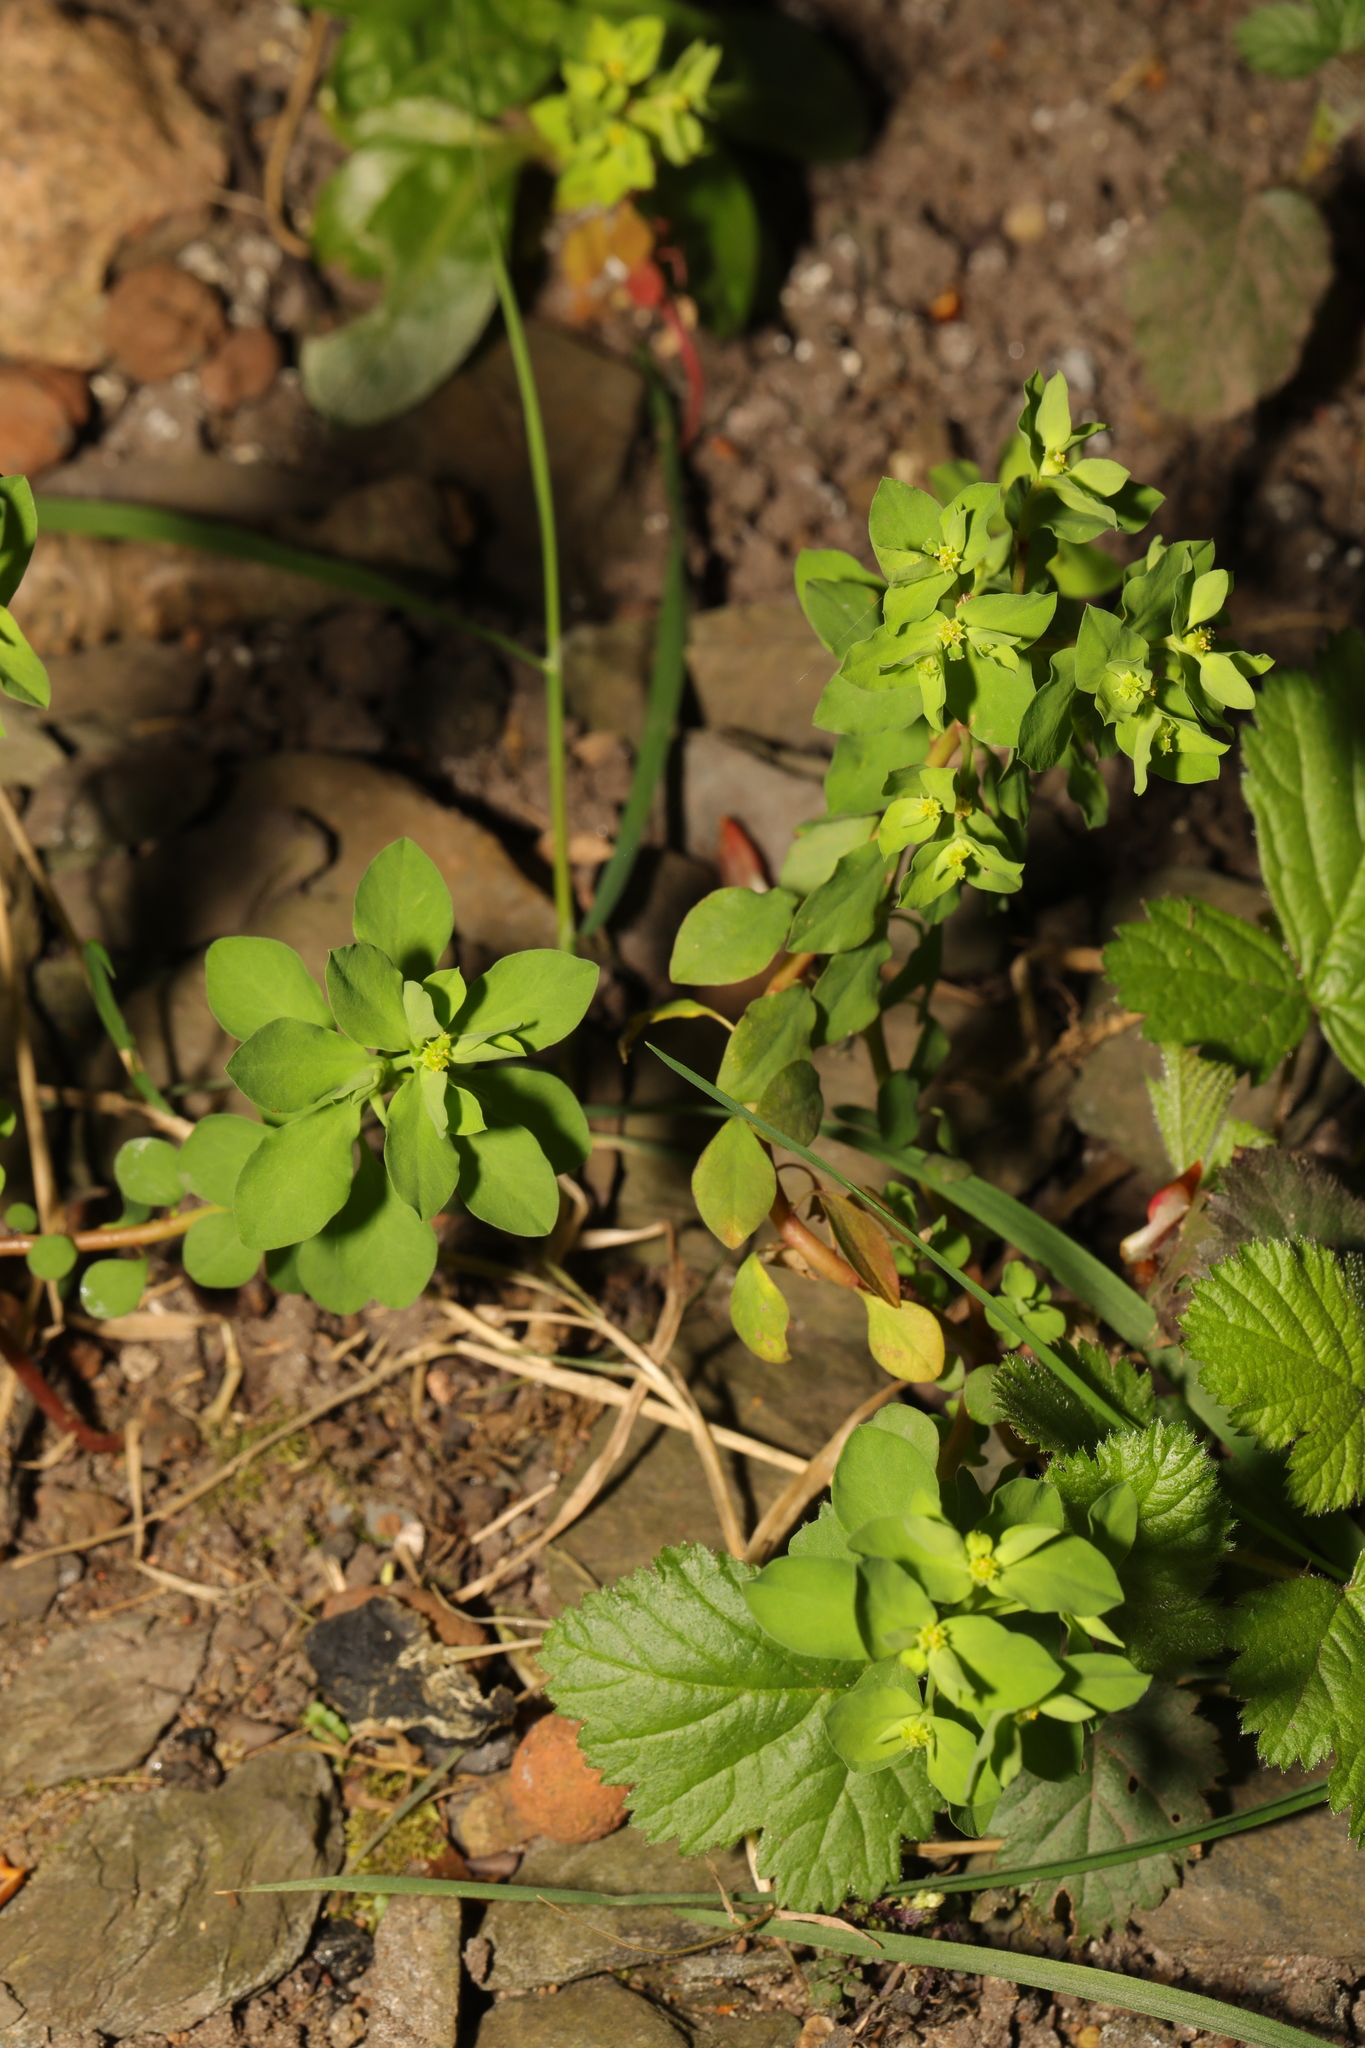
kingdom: Plantae
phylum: Tracheophyta
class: Magnoliopsida
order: Malpighiales
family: Euphorbiaceae
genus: Euphorbia
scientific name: Euphorbia peplus
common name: Petty spurge
